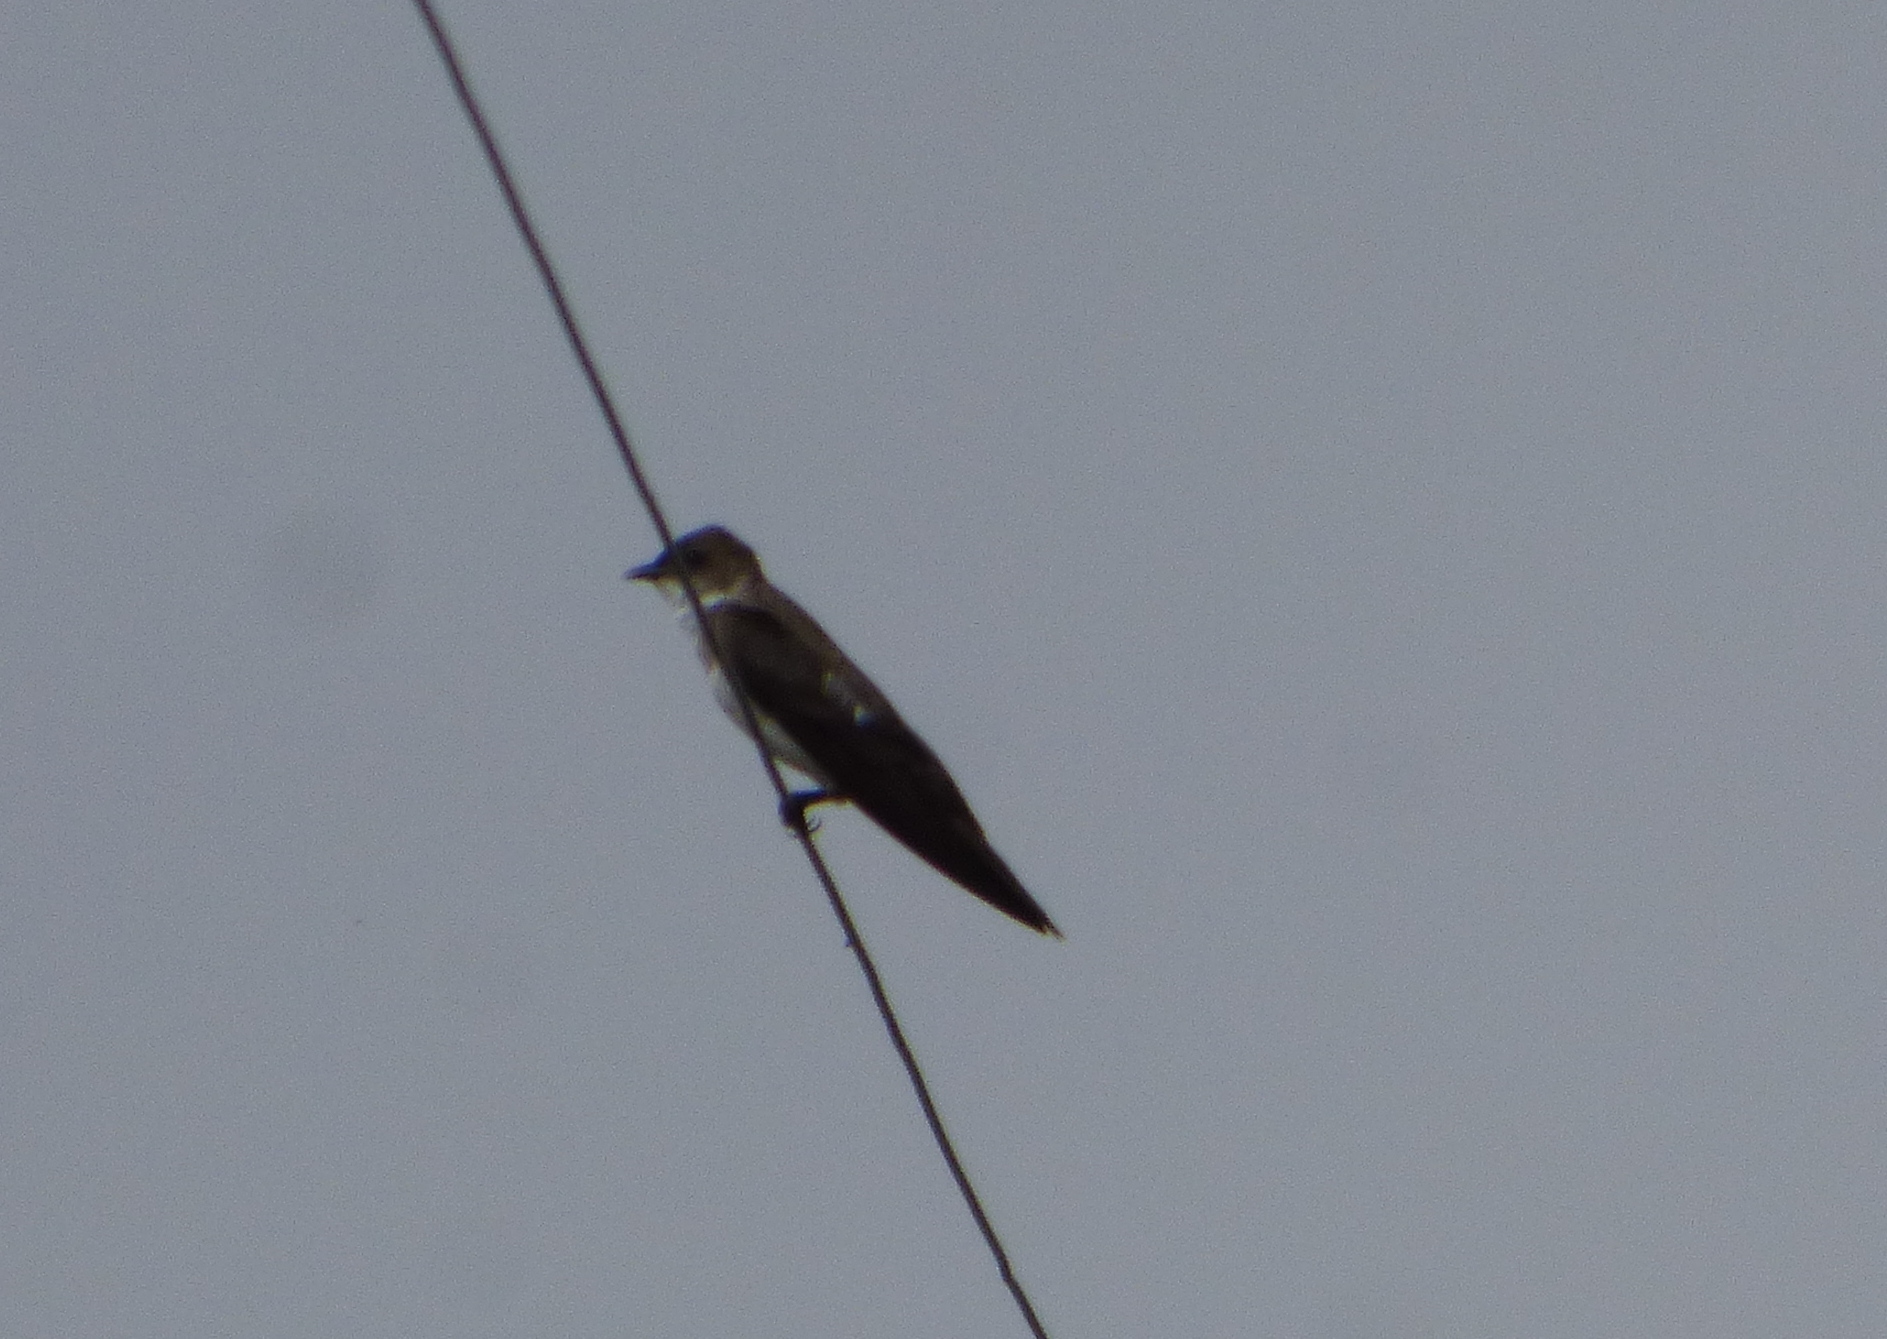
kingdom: Animalia
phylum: Chordata
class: Aves
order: Passeriformes
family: Hirundinidae
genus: Progne
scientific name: Progne tapera
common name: Brown-chested martin
